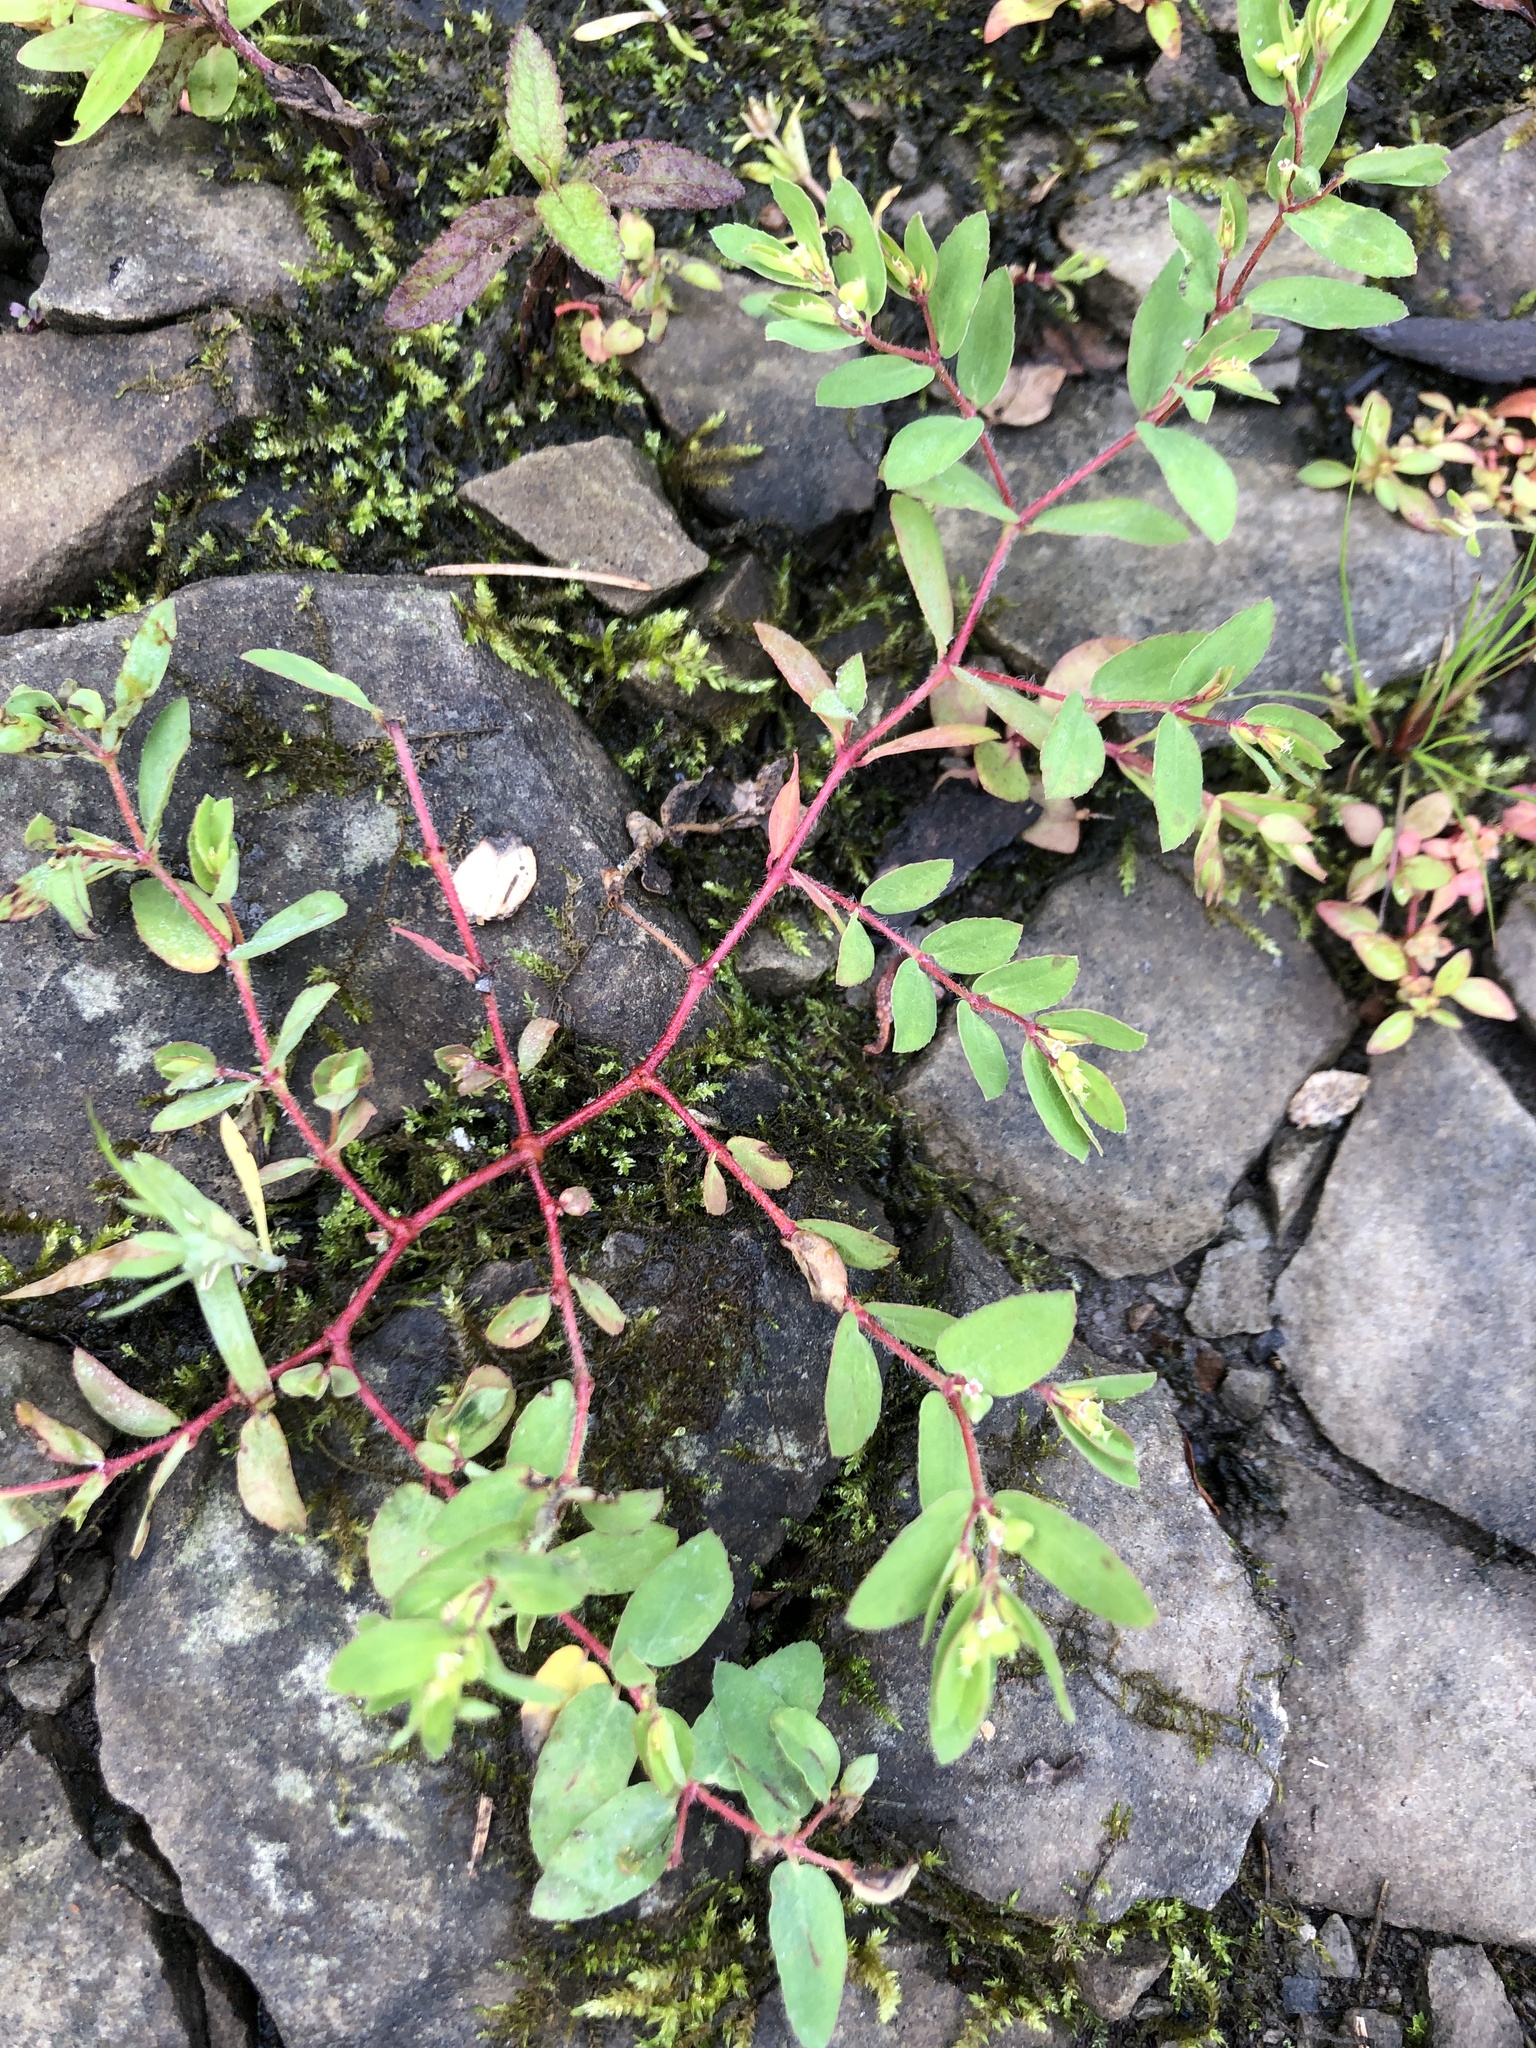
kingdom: Plantae
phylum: Tracheophyta
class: Magnoliopsida
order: Malpighiales
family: Euphorbiaceae
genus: Euphorbia
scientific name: Euphorbia vermiculata
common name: Hairy spurge
